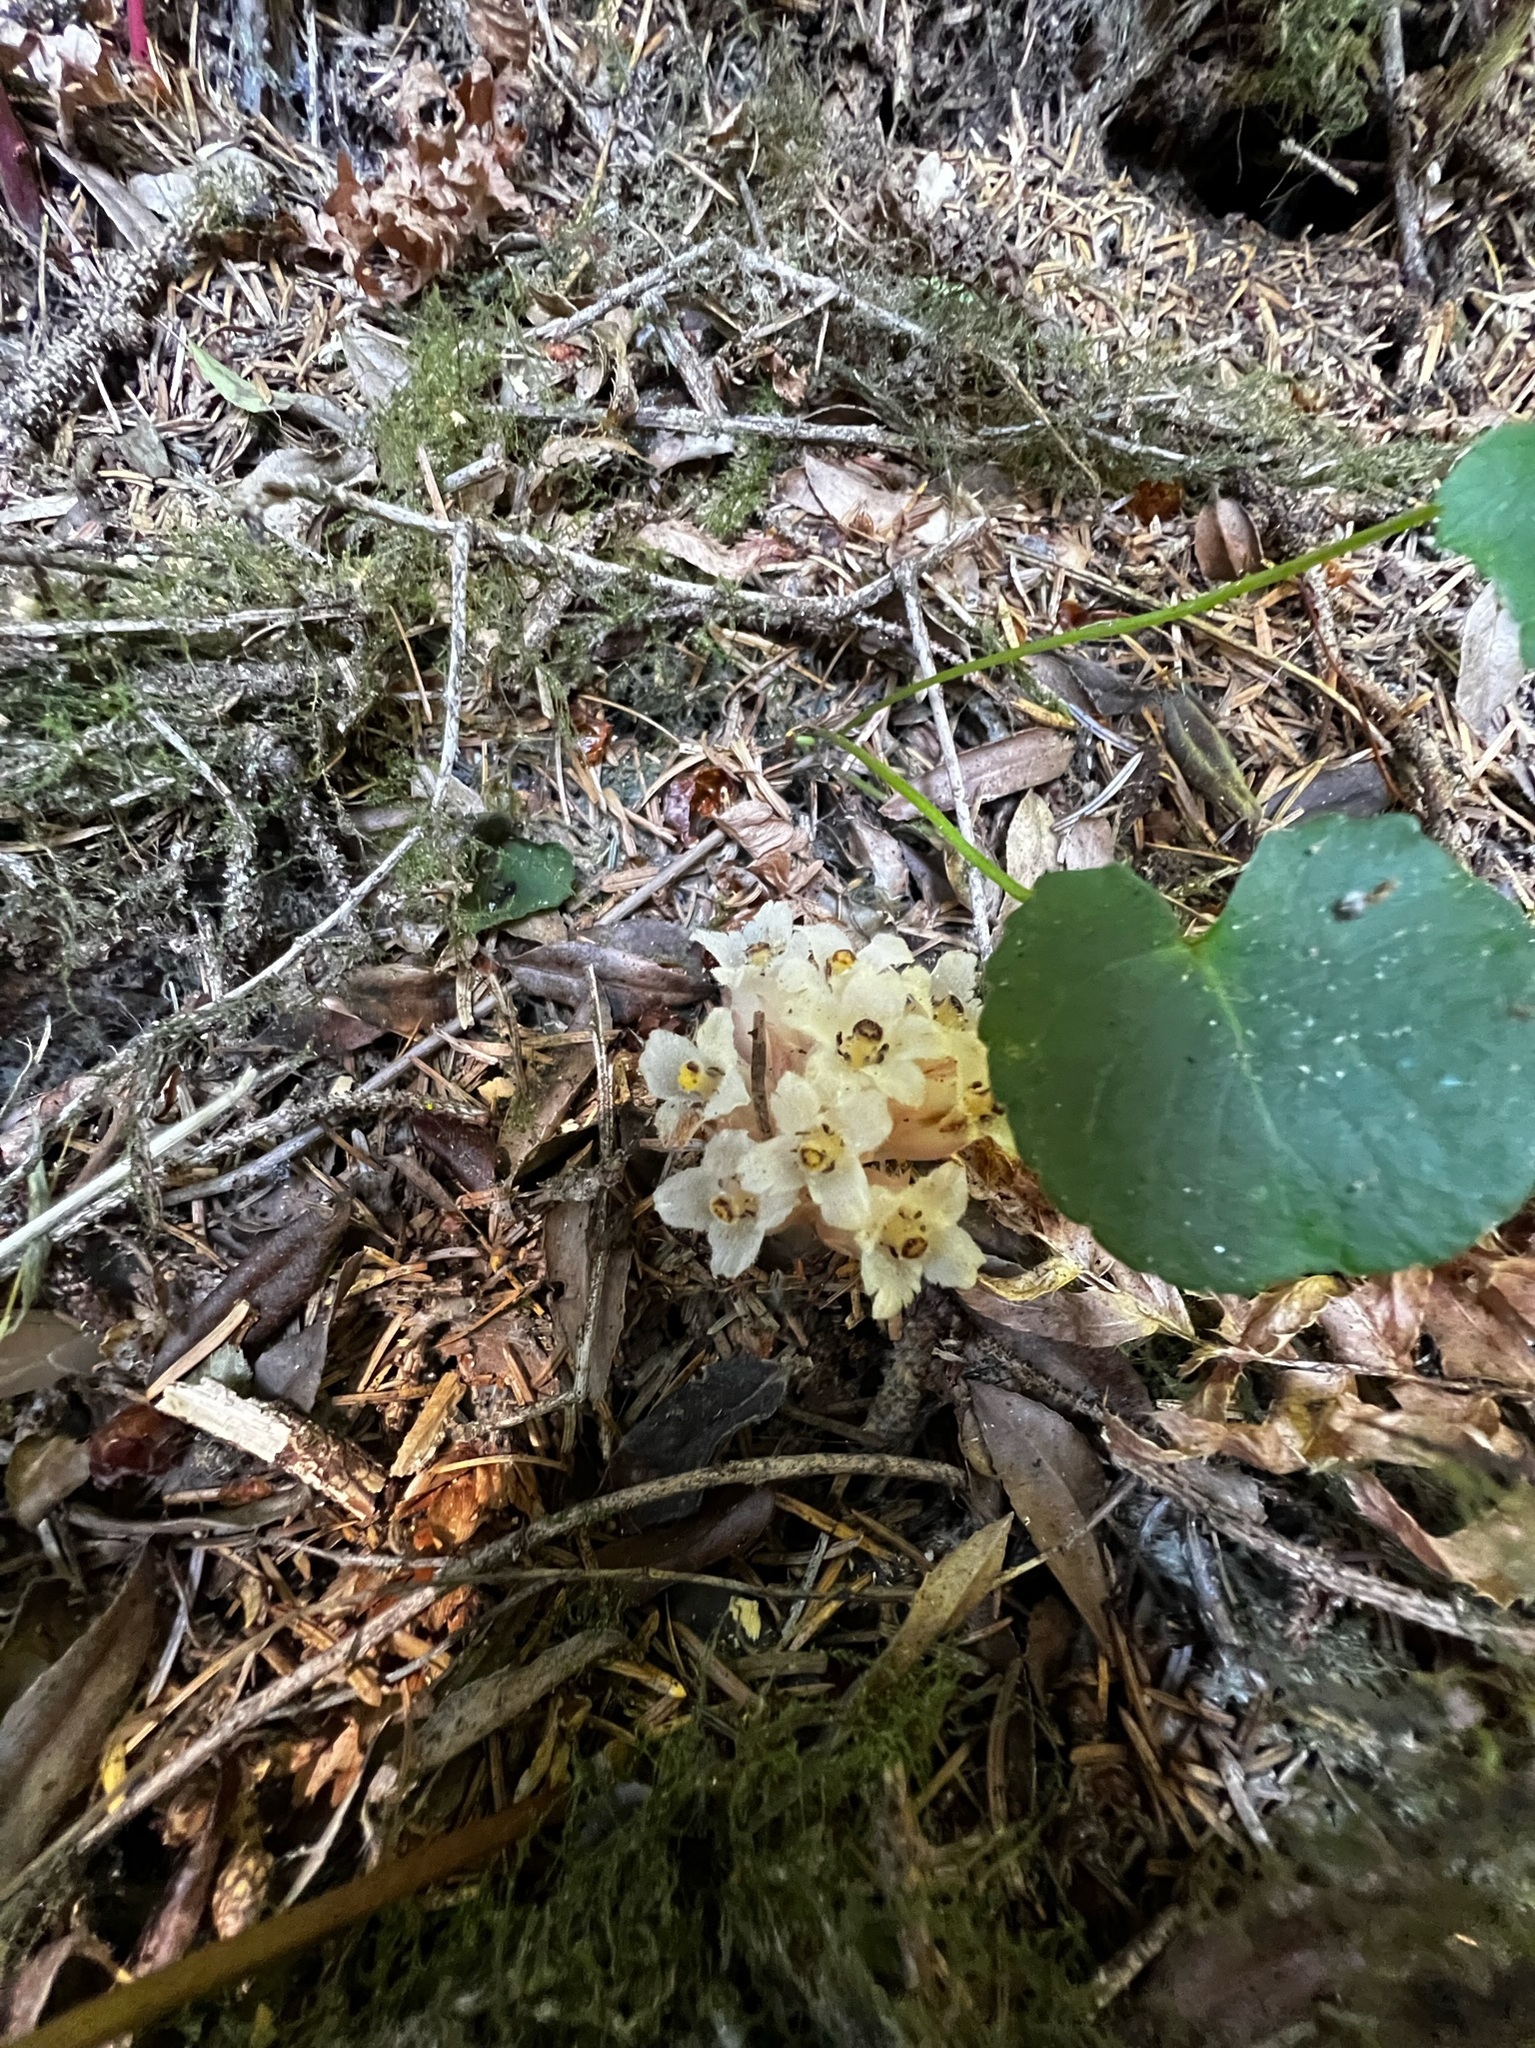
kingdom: Plantae
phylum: Tracheophyta
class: Magnoliopsida
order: Ericales
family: Ericaceae
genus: Hemitomes
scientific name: Hemitomes congestum
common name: Cone plant
